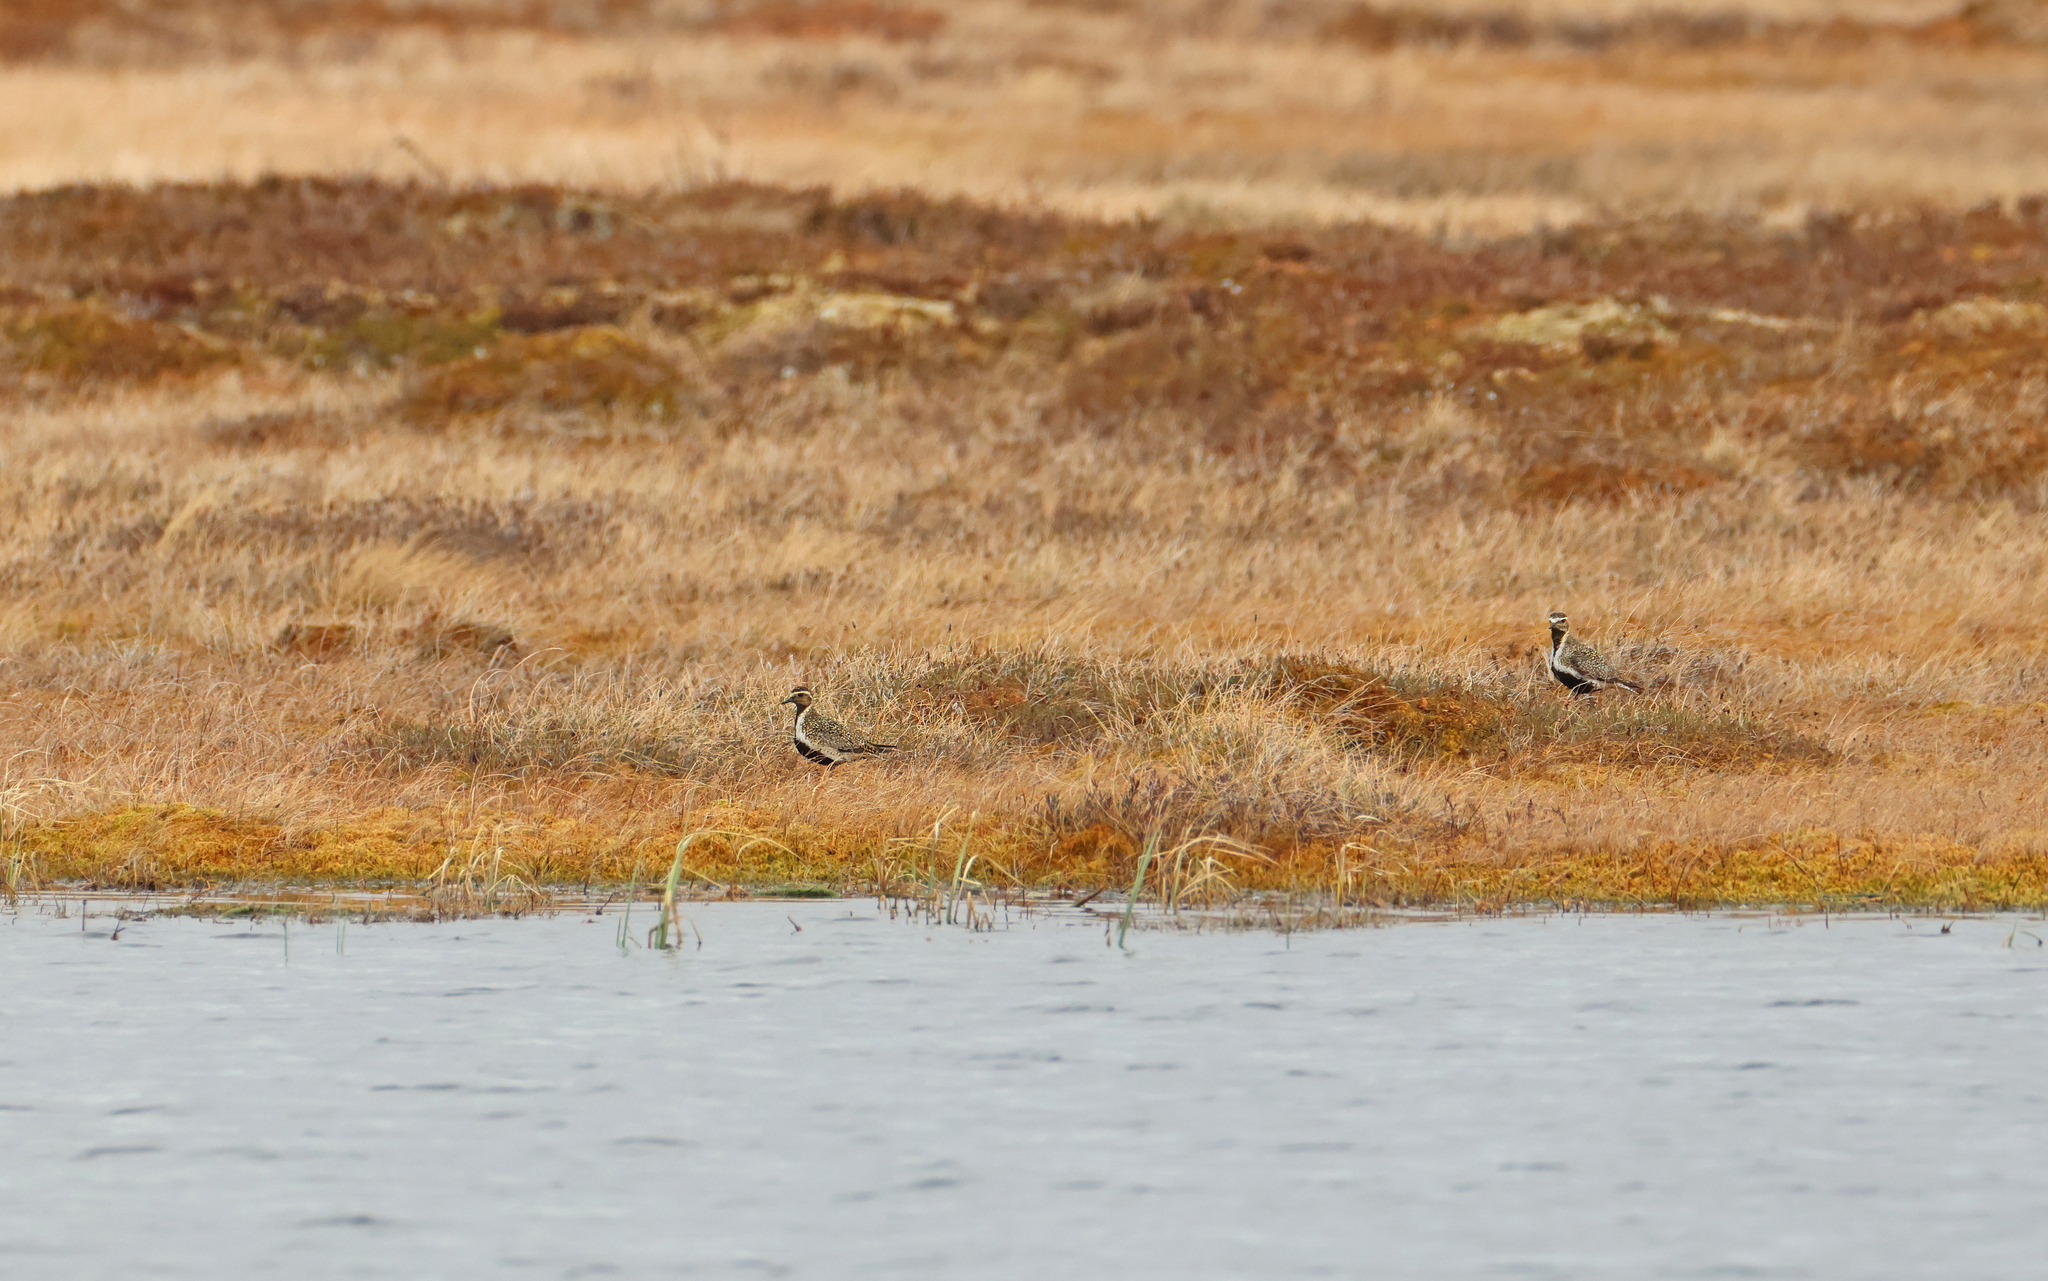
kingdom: Animalia
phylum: Chordata
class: Aves
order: Charadriiformes
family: Charadriidae
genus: Pluvialis
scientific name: Pluvialis apricaria
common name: European golden plover
